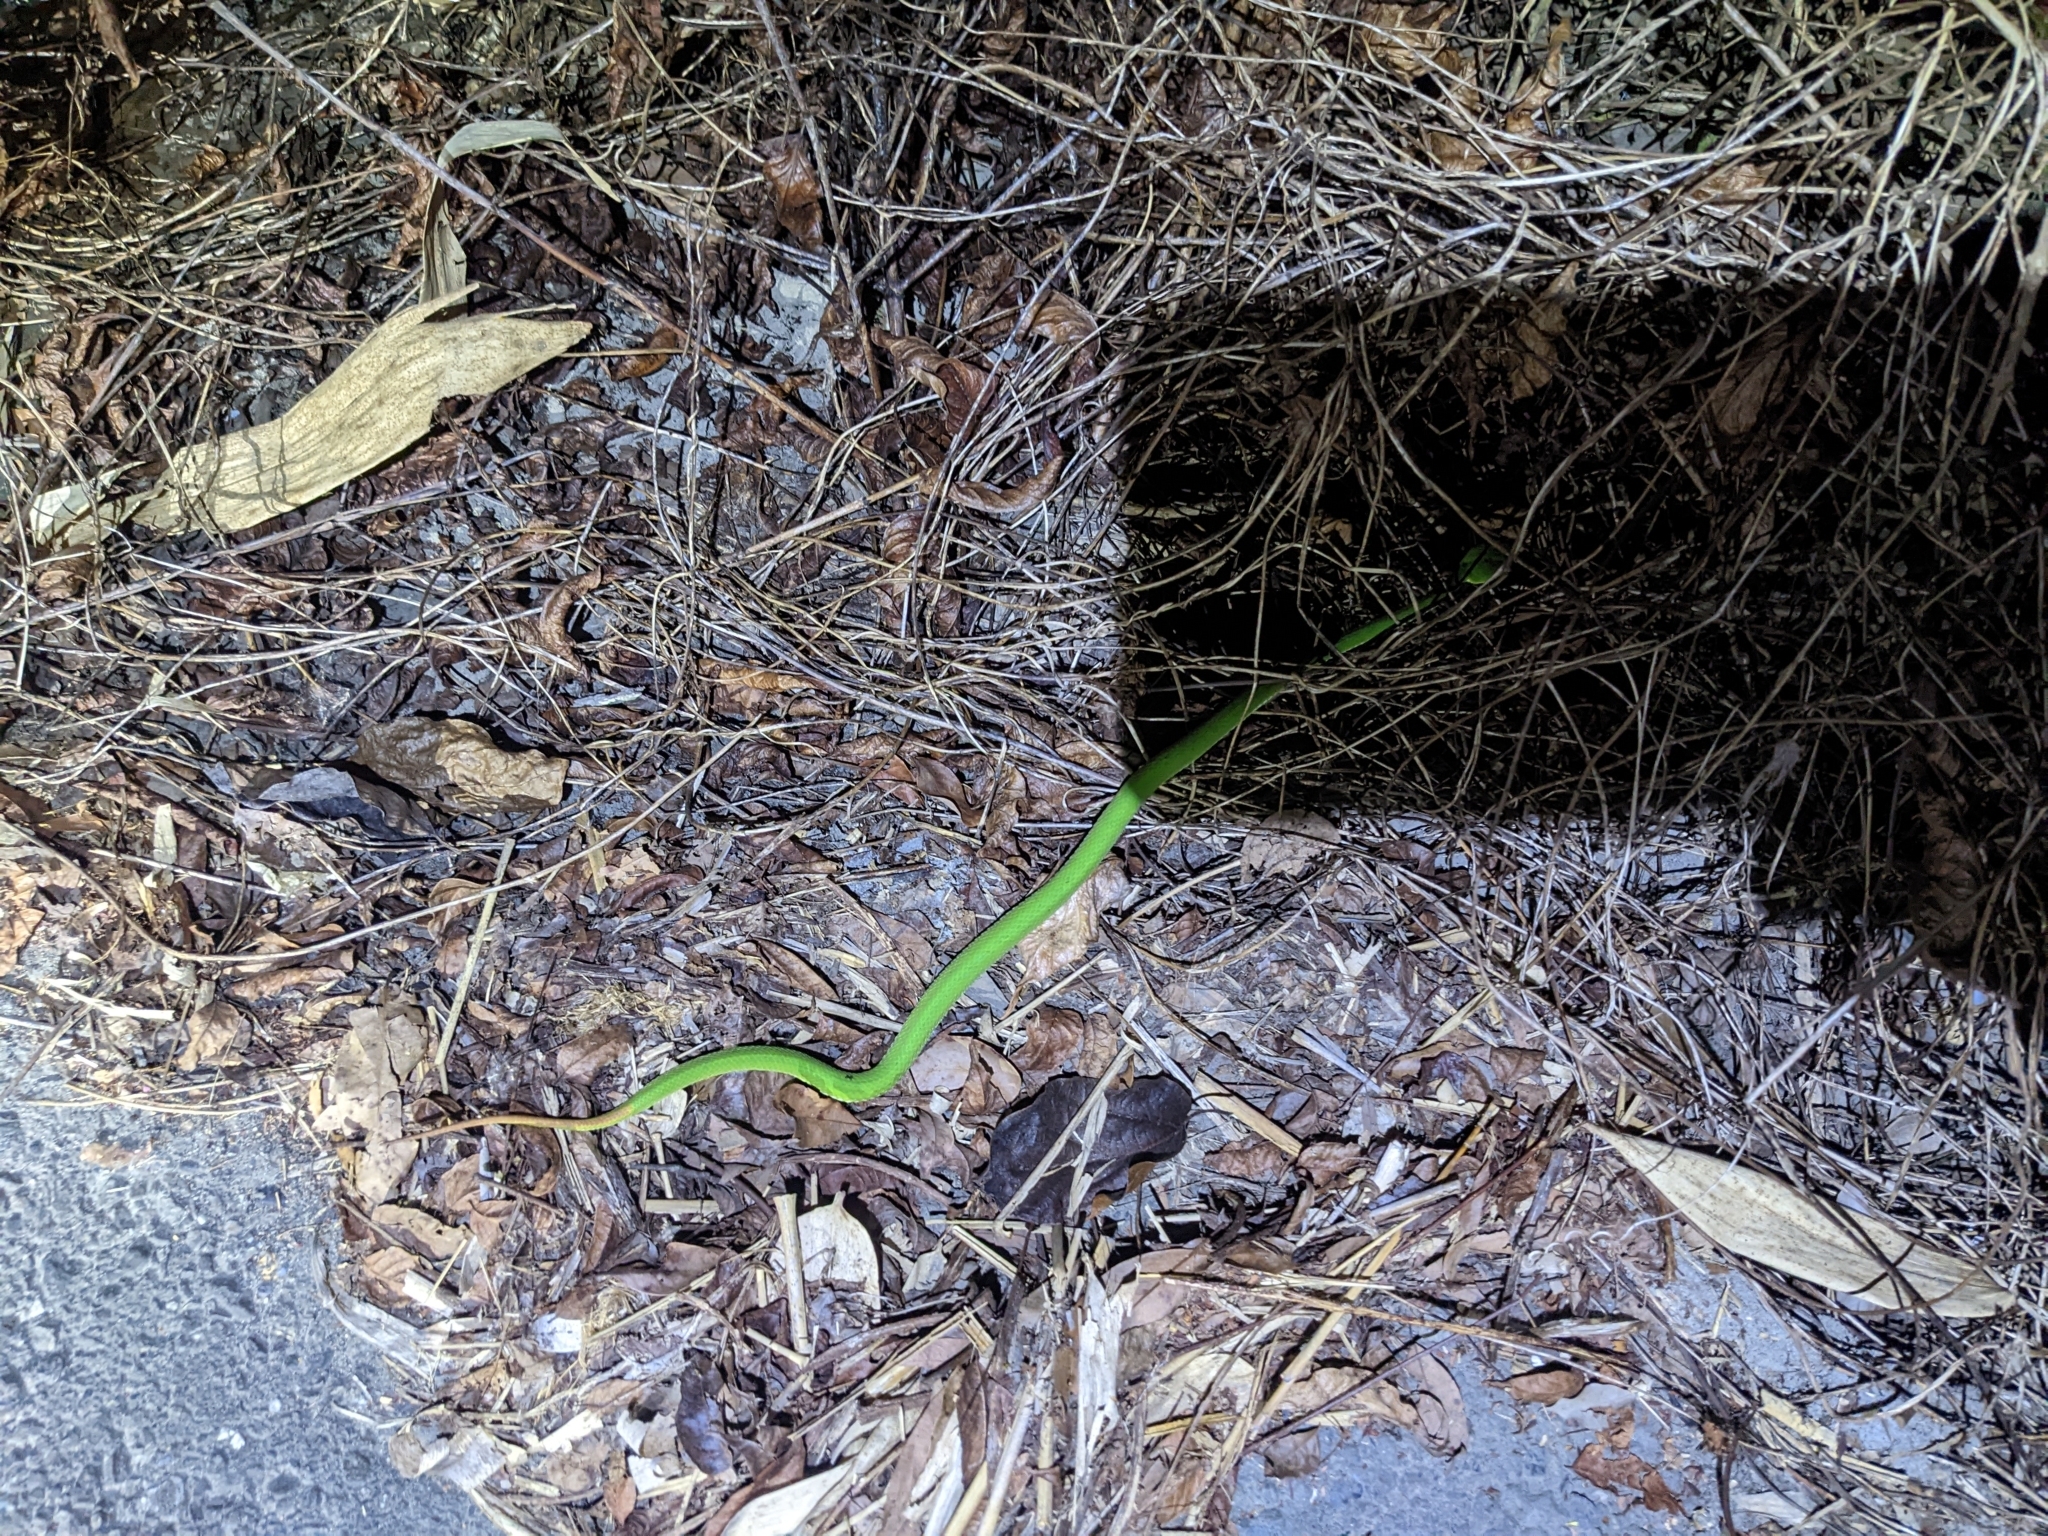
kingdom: Animalia
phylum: Chordata
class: Squamata
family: Viperidae
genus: Trimeresurus
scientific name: Trimeresurus stejnegeri
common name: Chen’s bamboo pit viper
